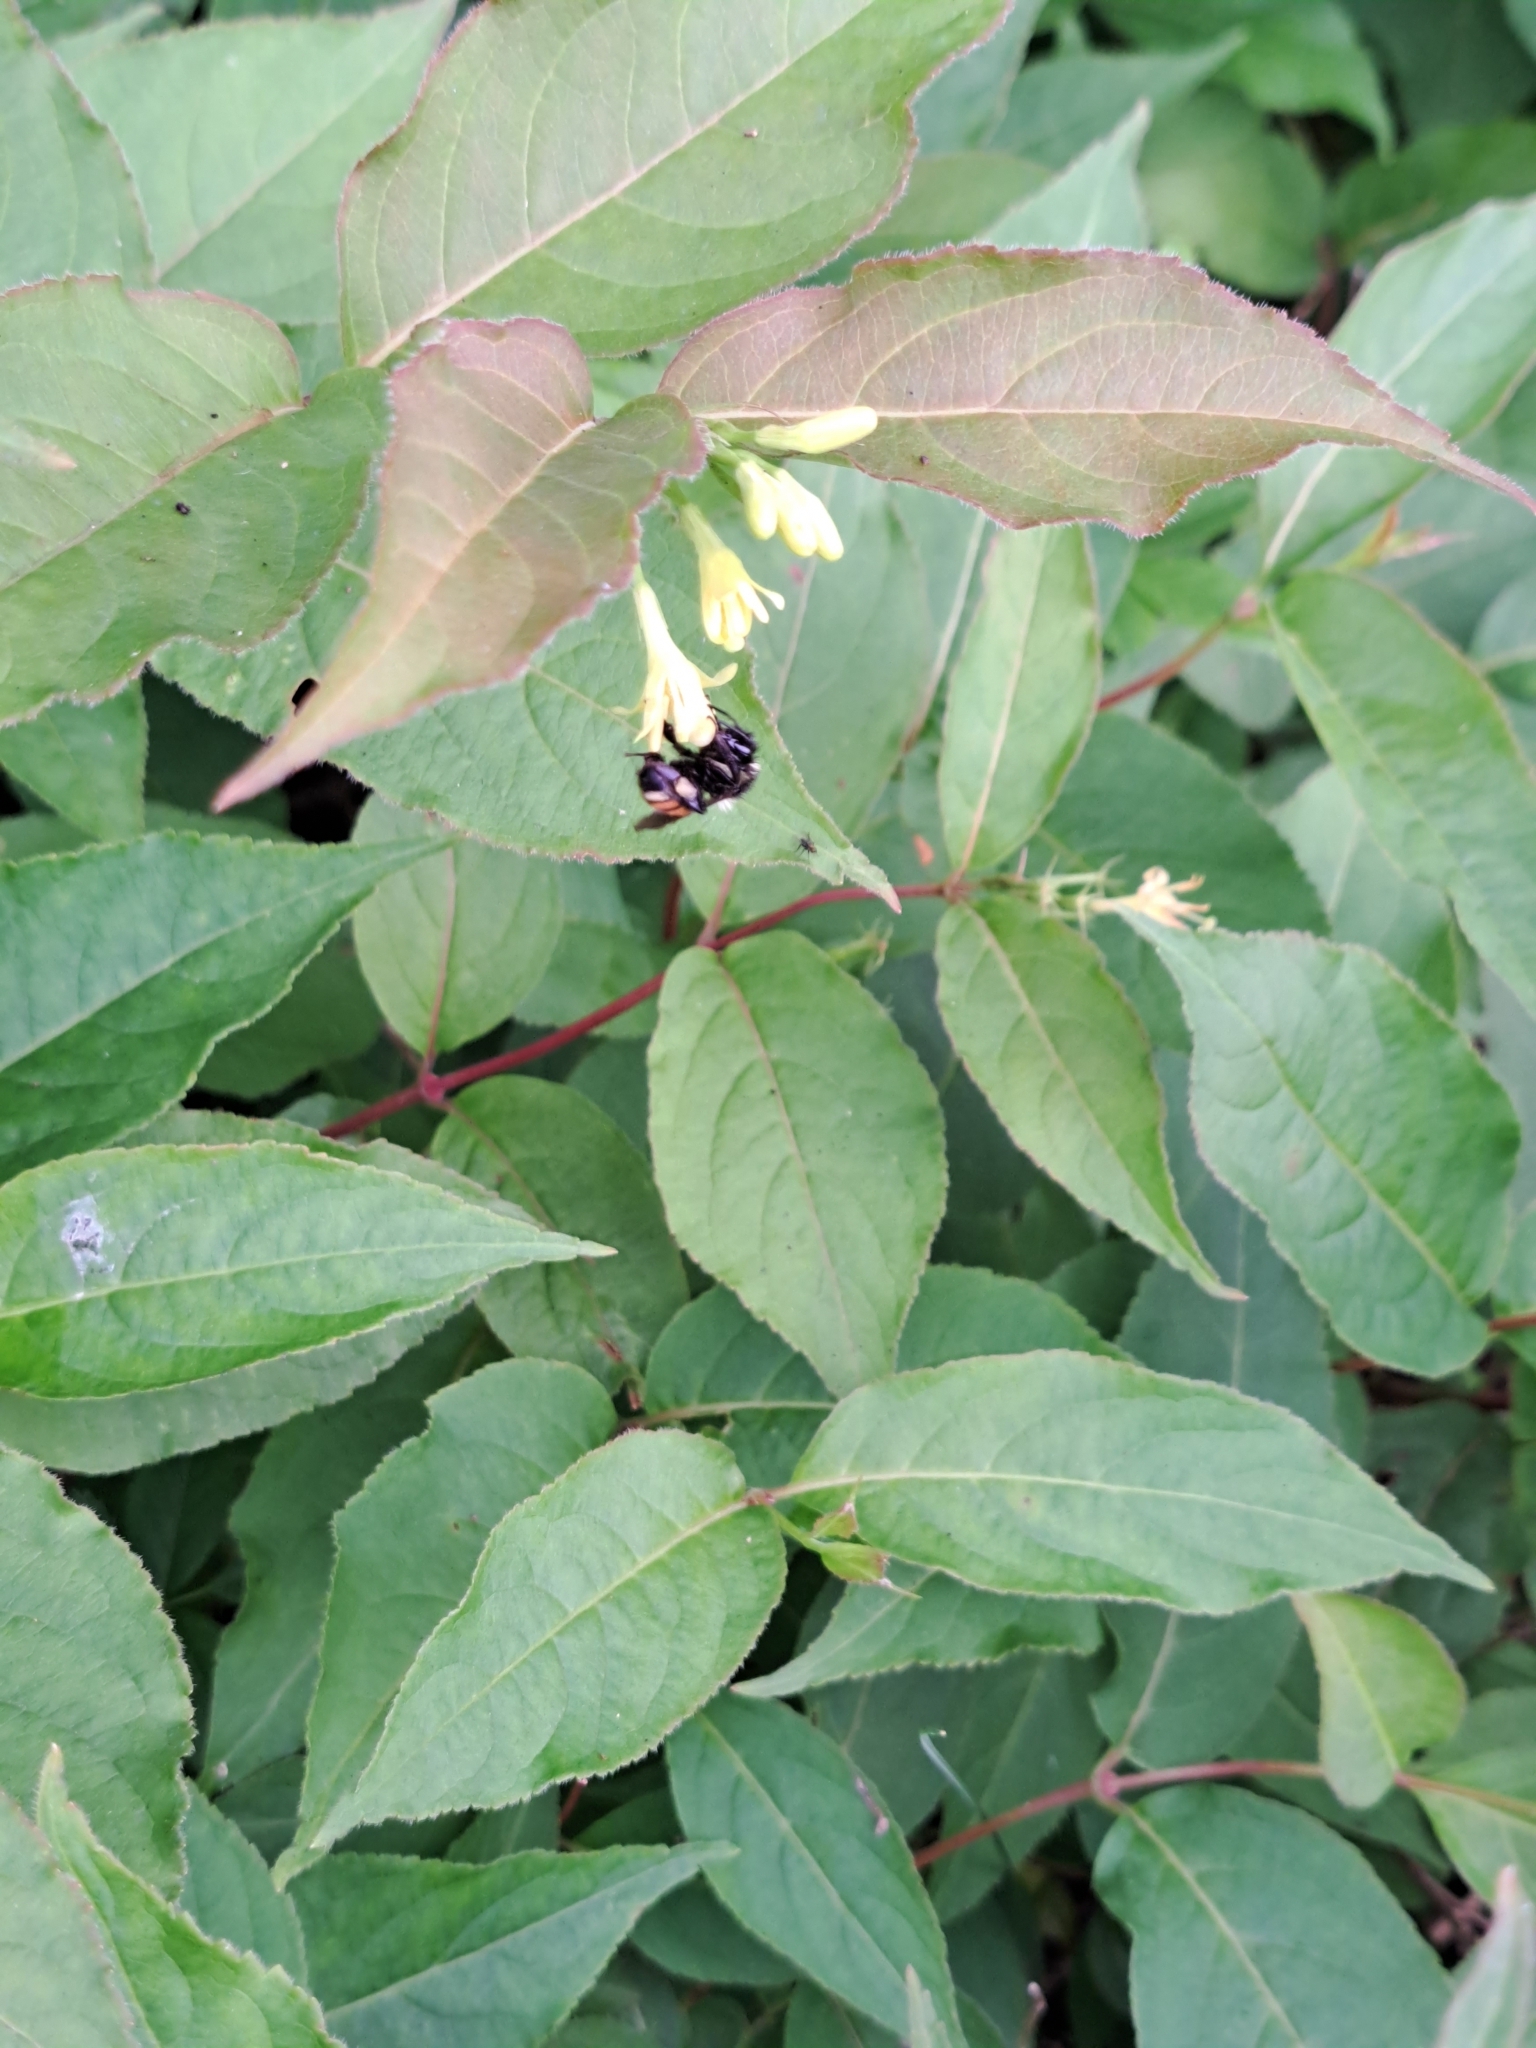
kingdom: Animalia
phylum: Arthropoda
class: Insecta
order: Hymenoptera
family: Apidae
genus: Bombus
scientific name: Bombus ternarius
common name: Tri-colored bumble bee
